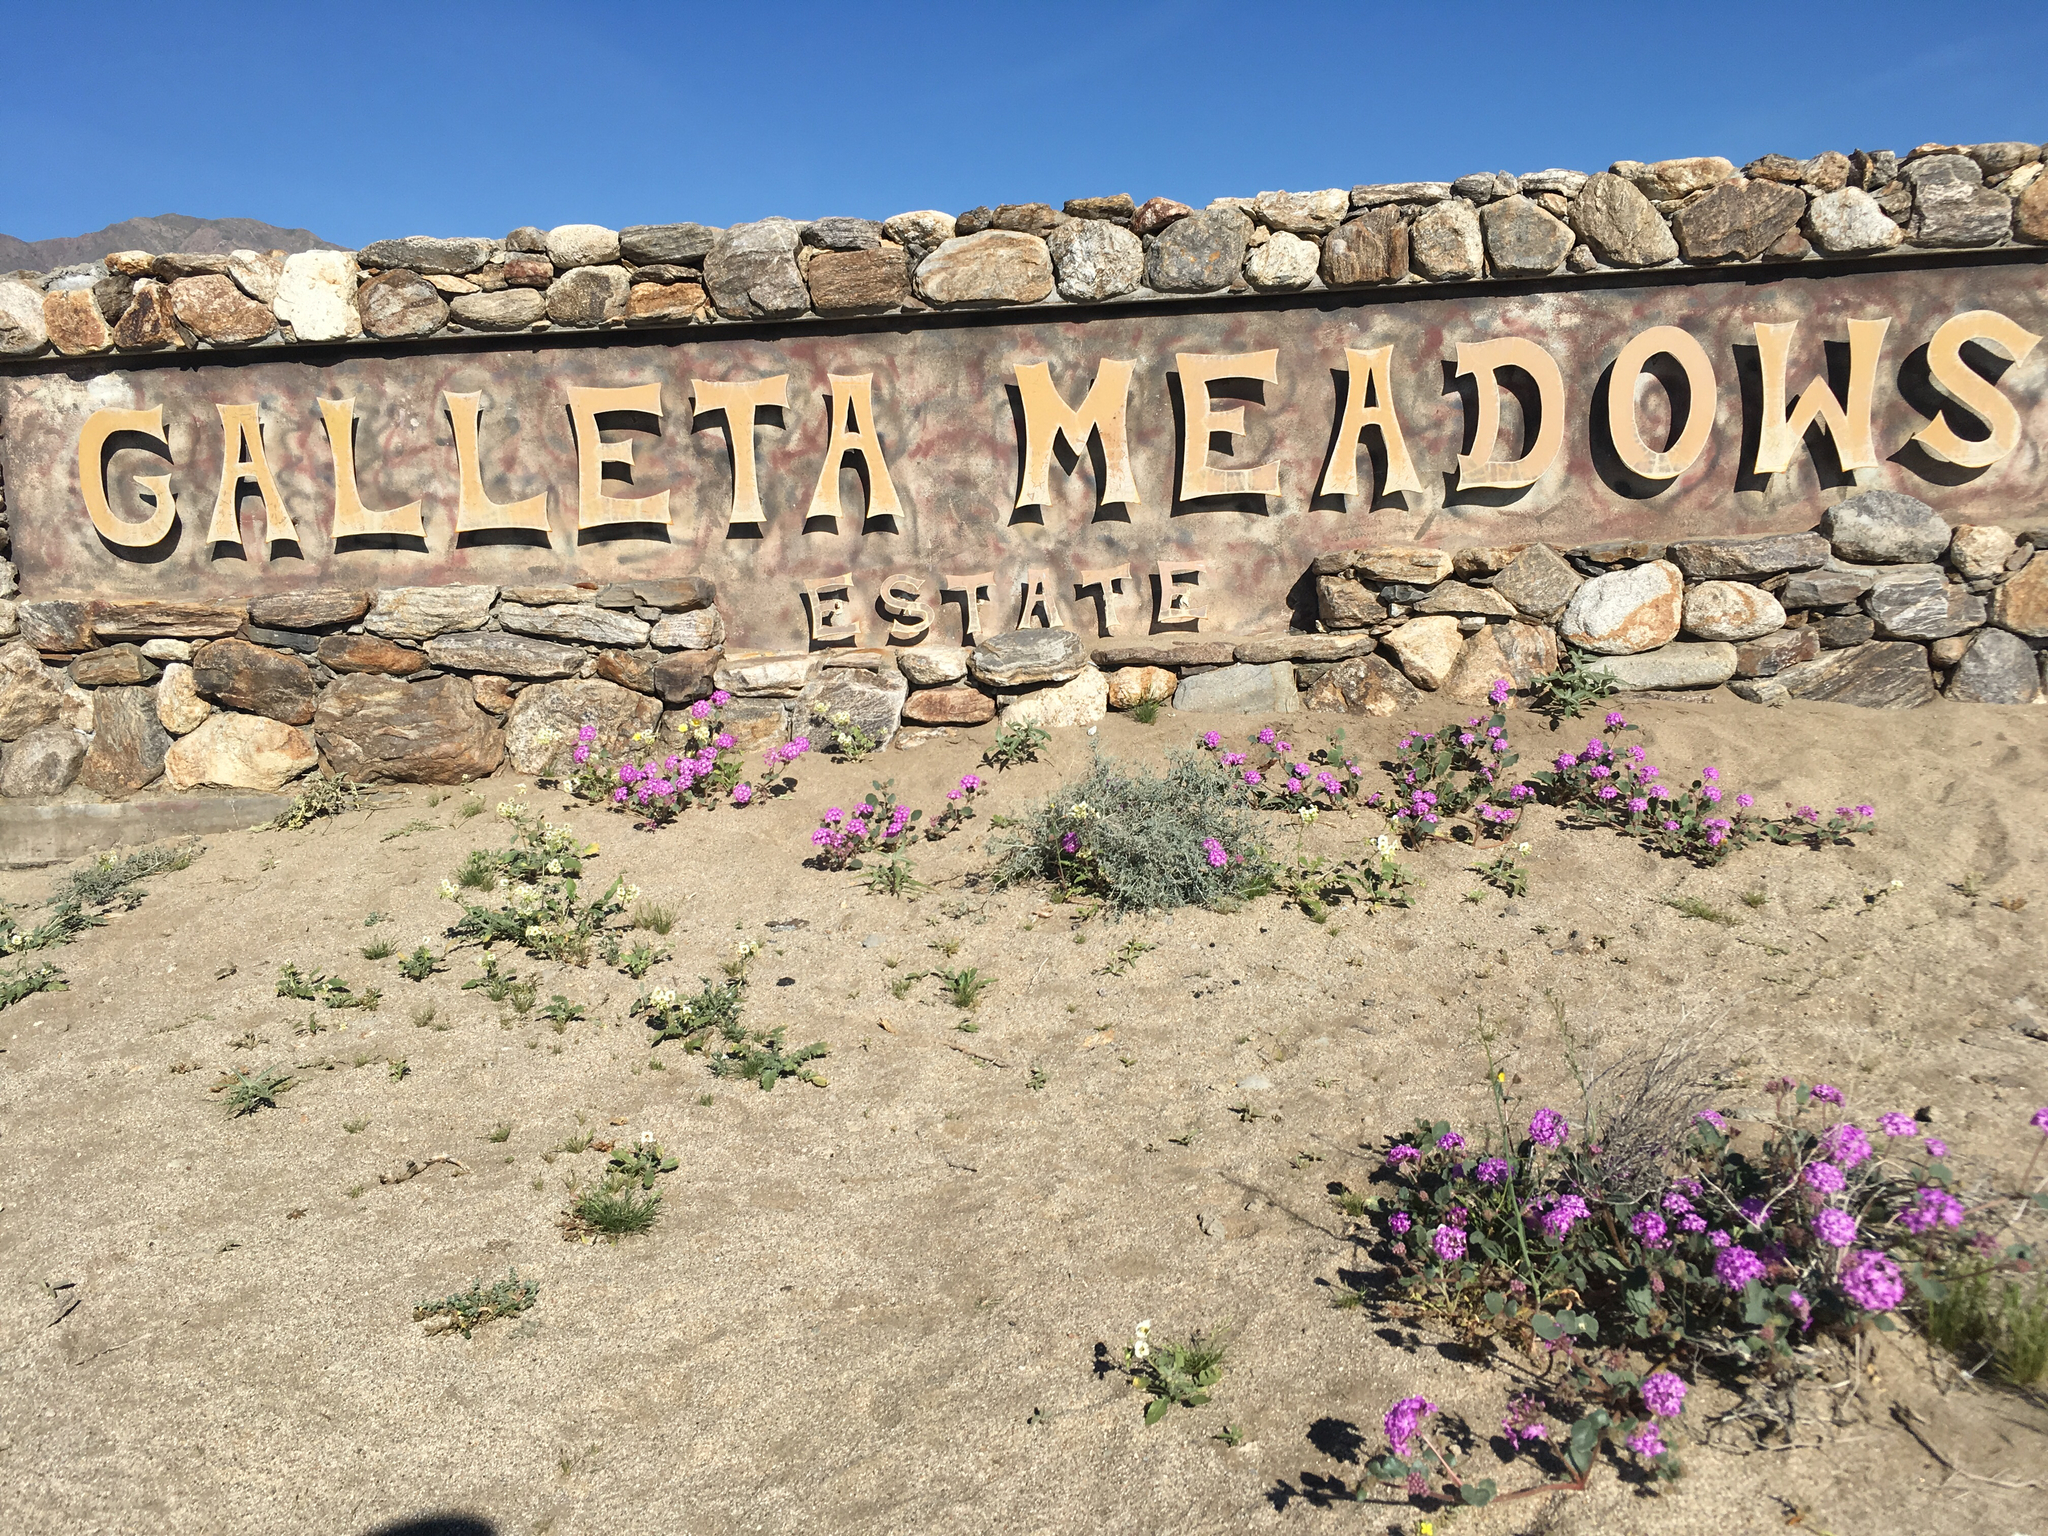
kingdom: Plantae
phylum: Tracheophyta
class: Magnoliopsida
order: Caryophyllales
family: Nyctaginaceae
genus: Abronia
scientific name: Abronia villosa
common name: Desert sand-verbena
